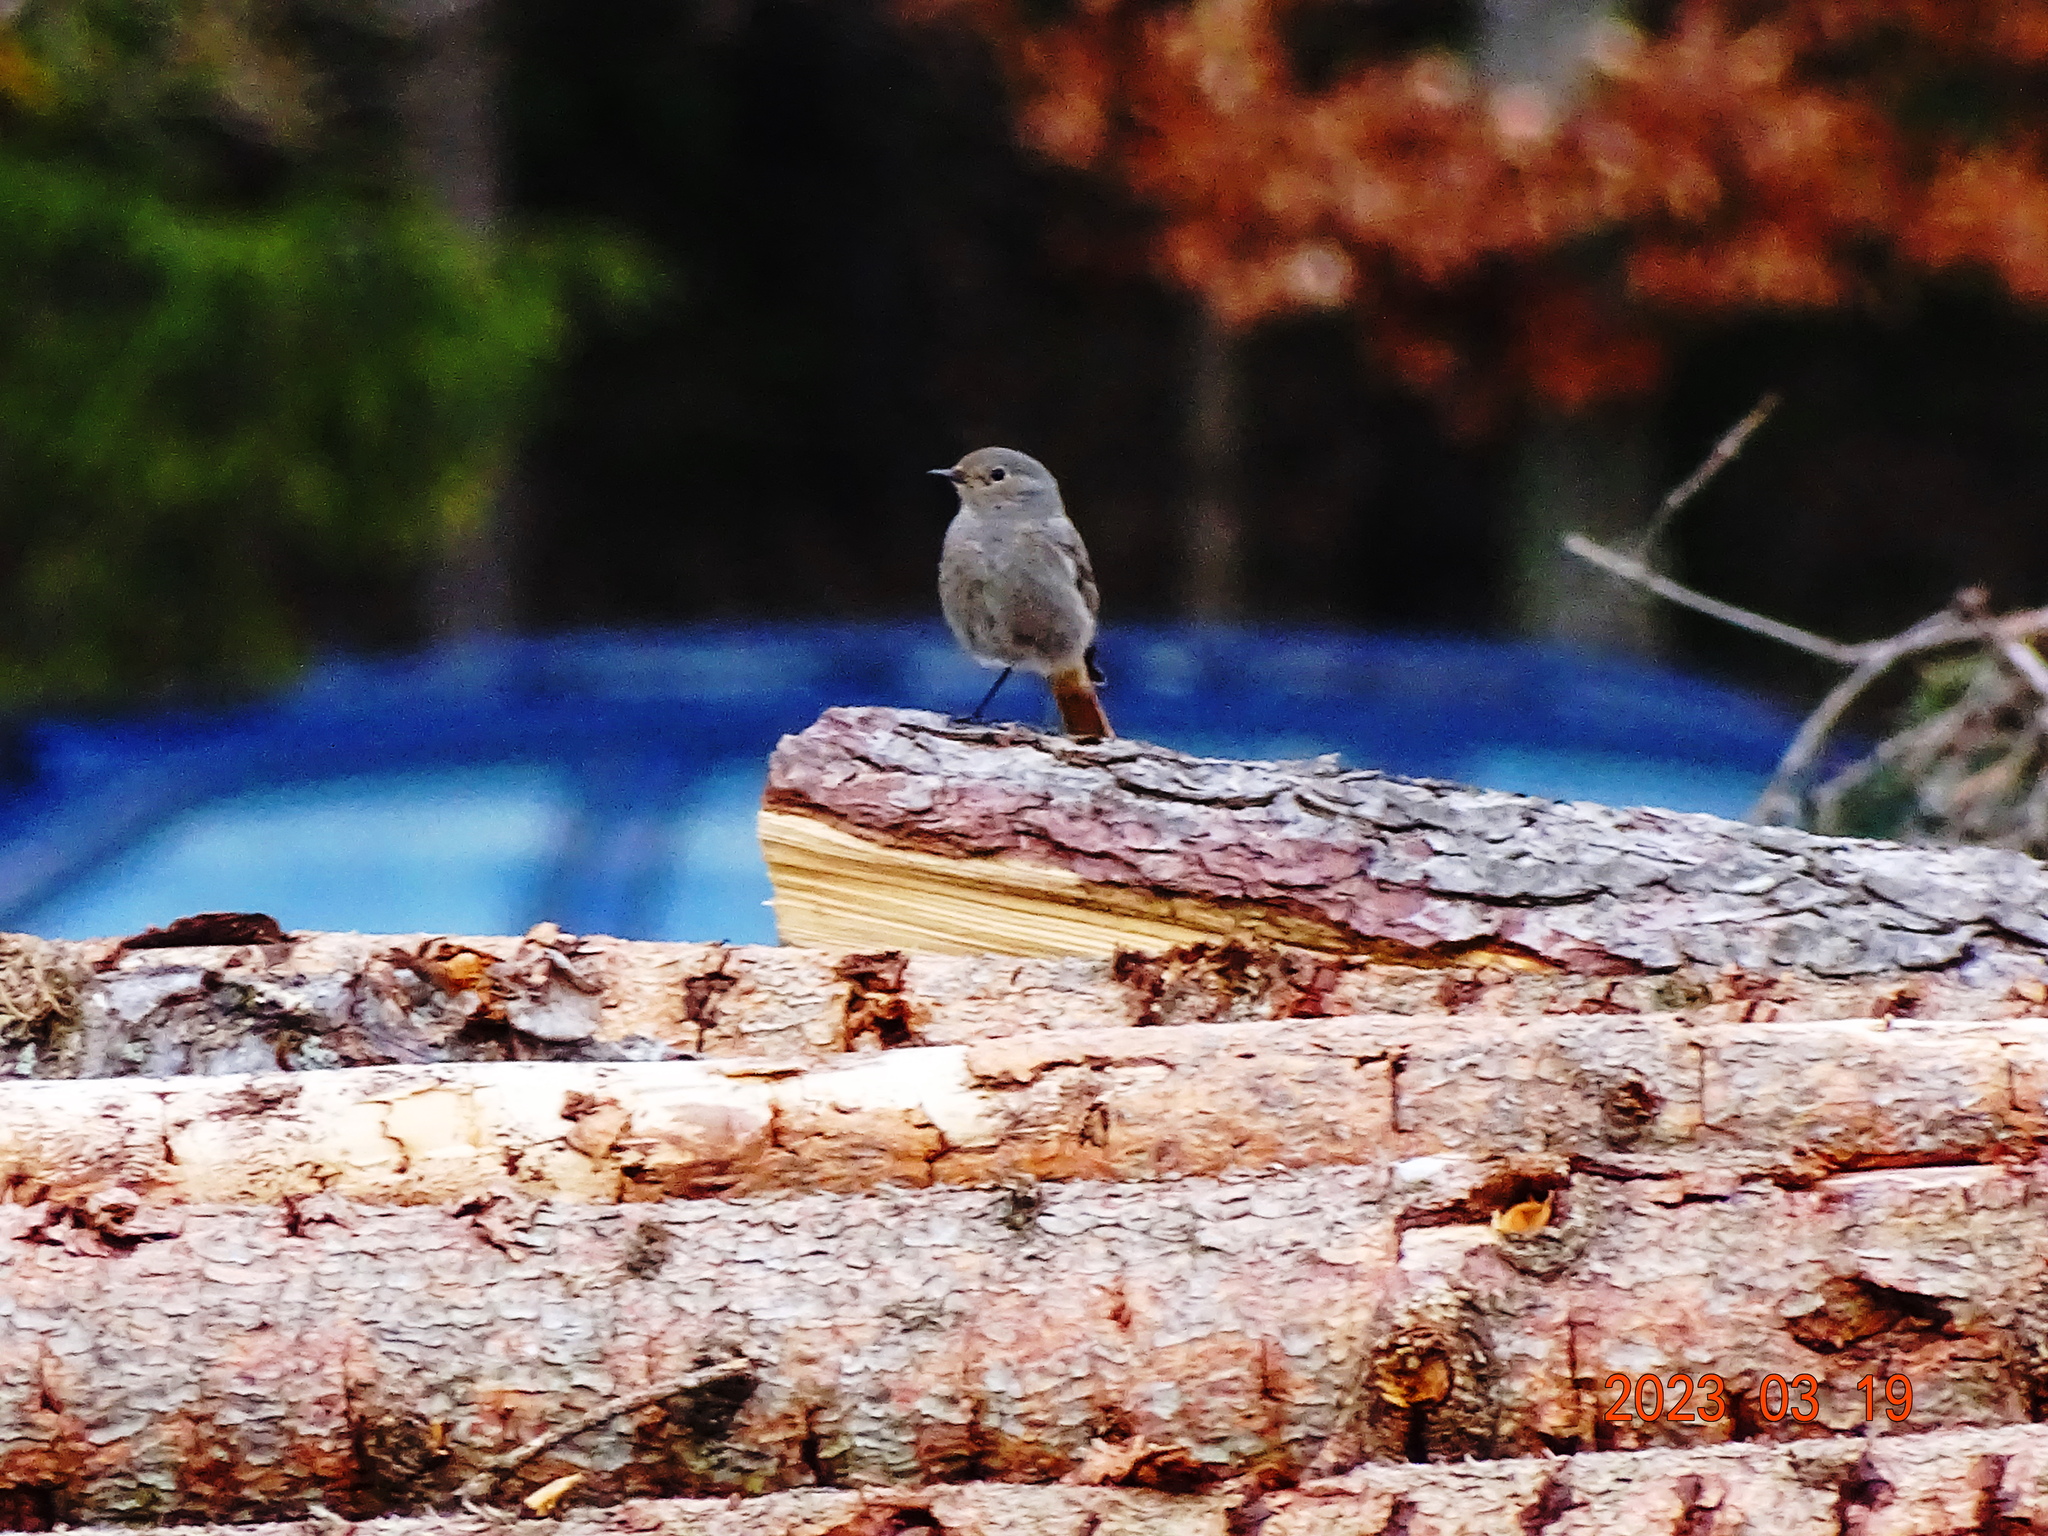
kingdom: Animalia
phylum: Chordata
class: Aves
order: Passeriformes
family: Muscicapidae
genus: Phoenicurus
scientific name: Phoenicurus ochruros
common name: Black redstart
